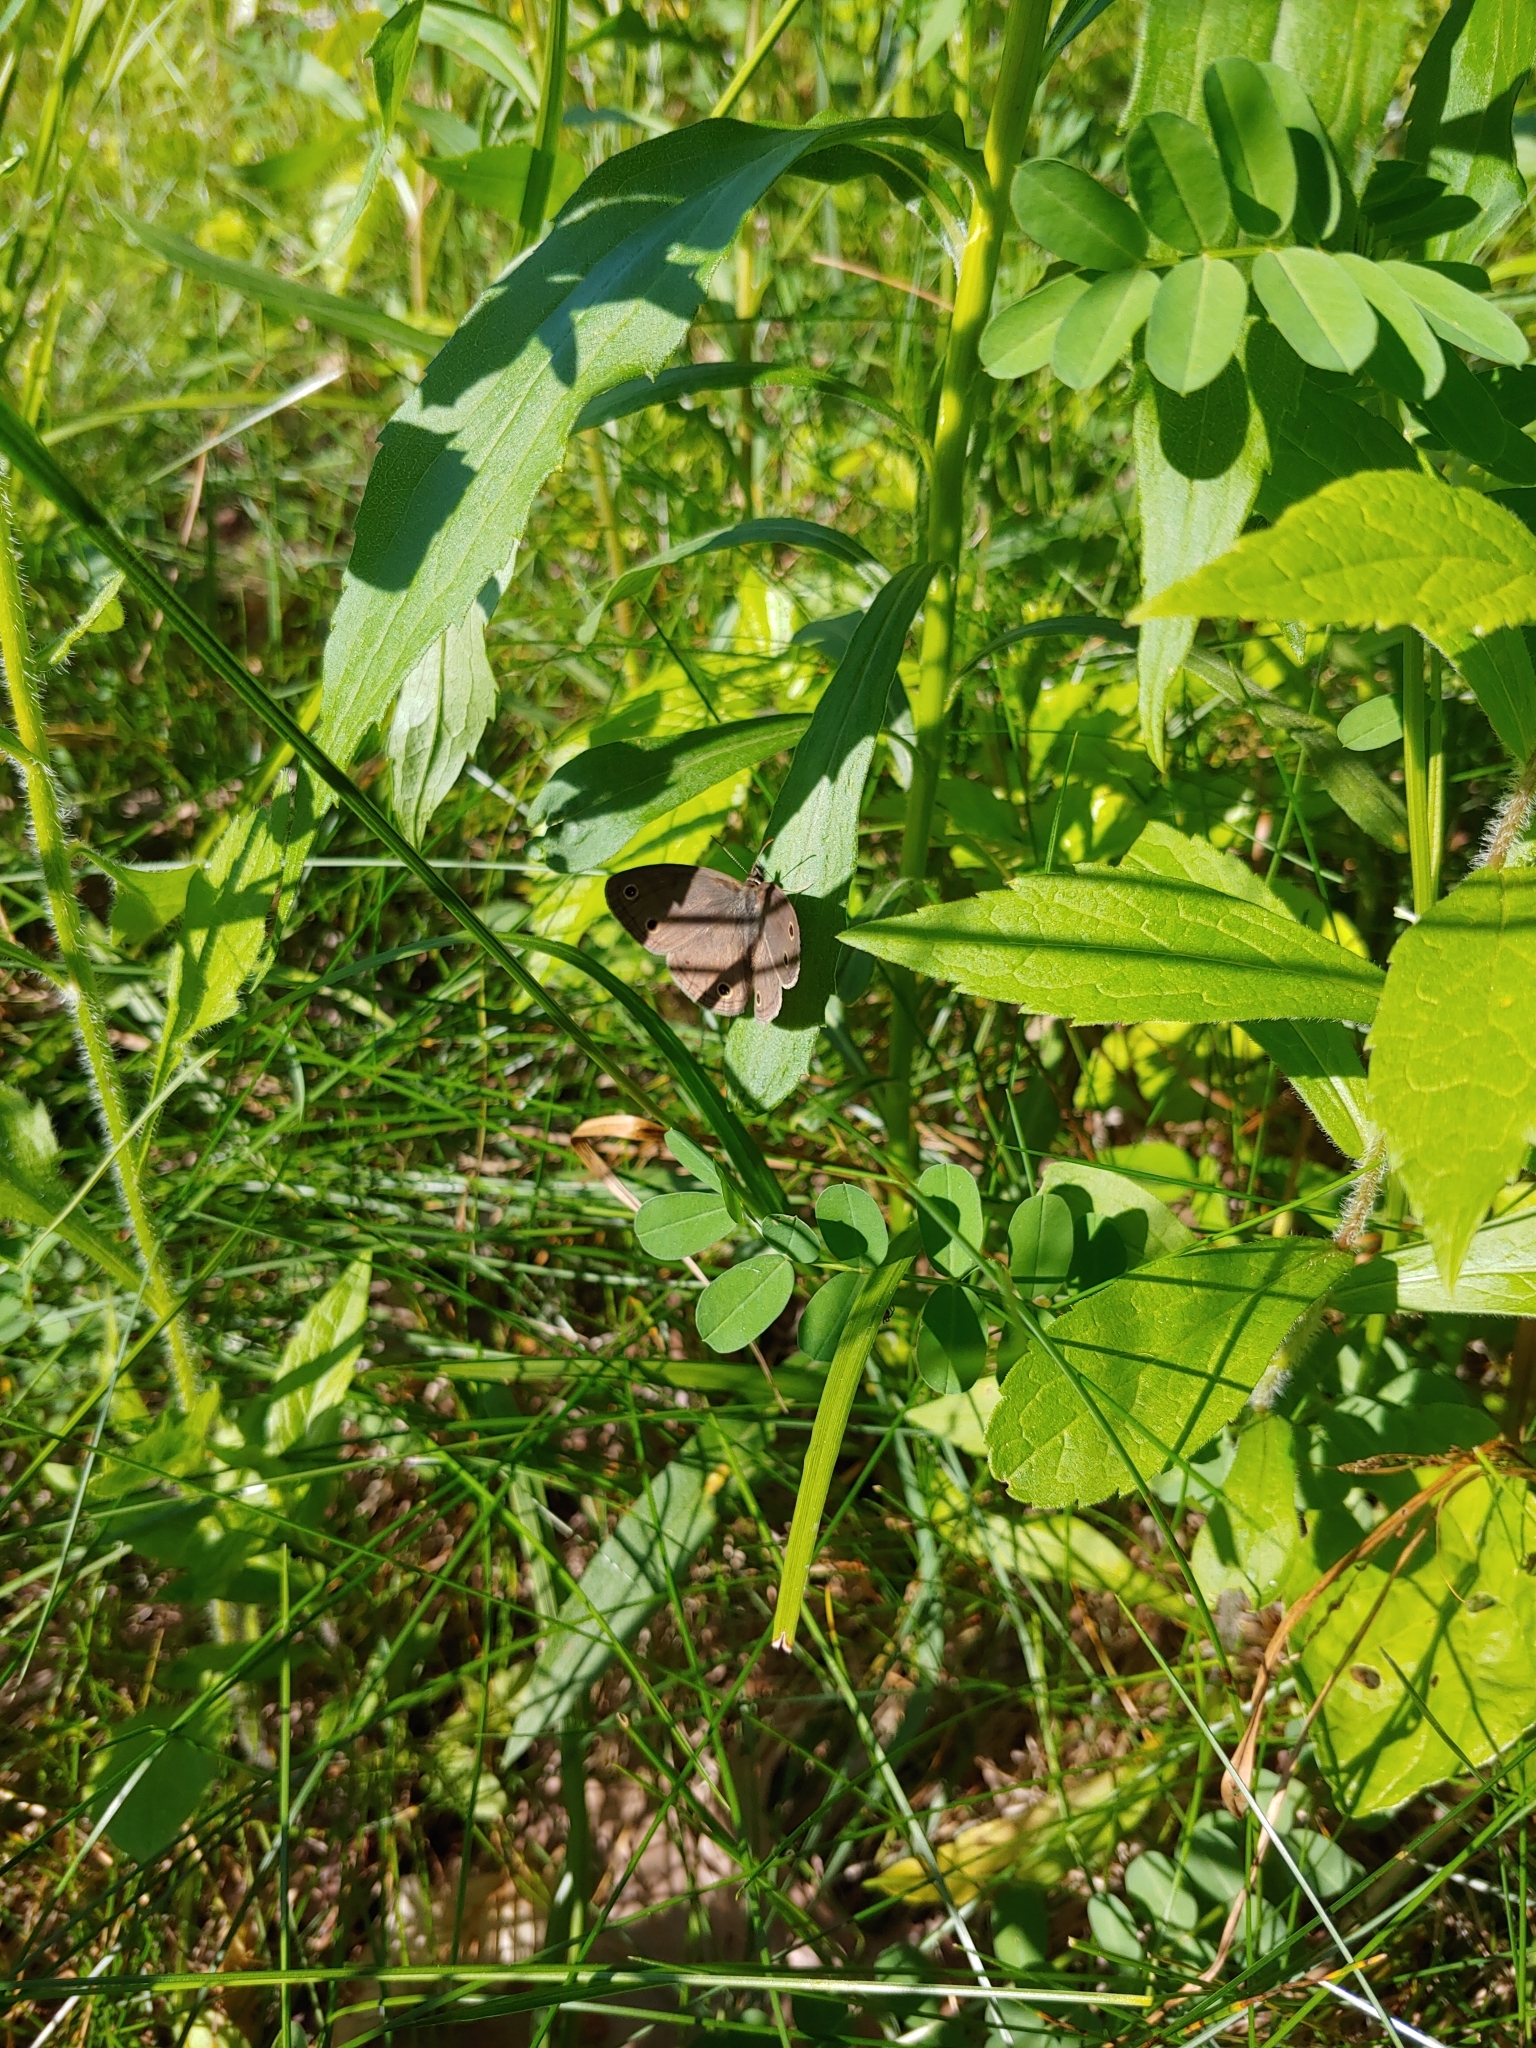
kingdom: Animalia
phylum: Arthropoda
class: Insecta
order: Lepidoptera
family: Nymphalidae
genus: Euptychia
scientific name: Euptychia cymela
